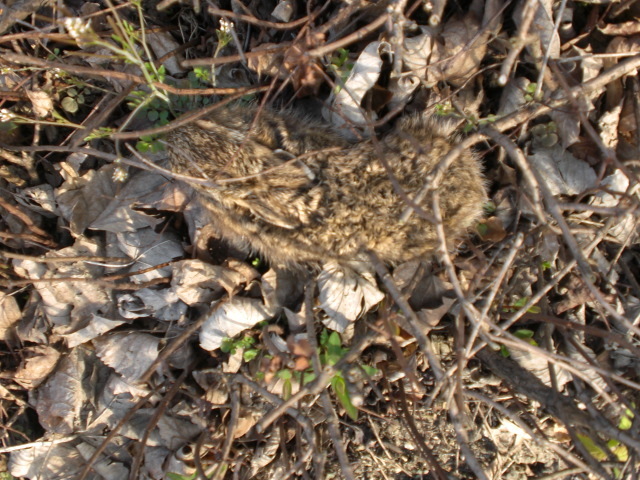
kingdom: Animalia
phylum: Chordata
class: Mammalia
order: Lagomorpha
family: Leporidae
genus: Lepus
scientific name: Lepus europaeus
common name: European hare
